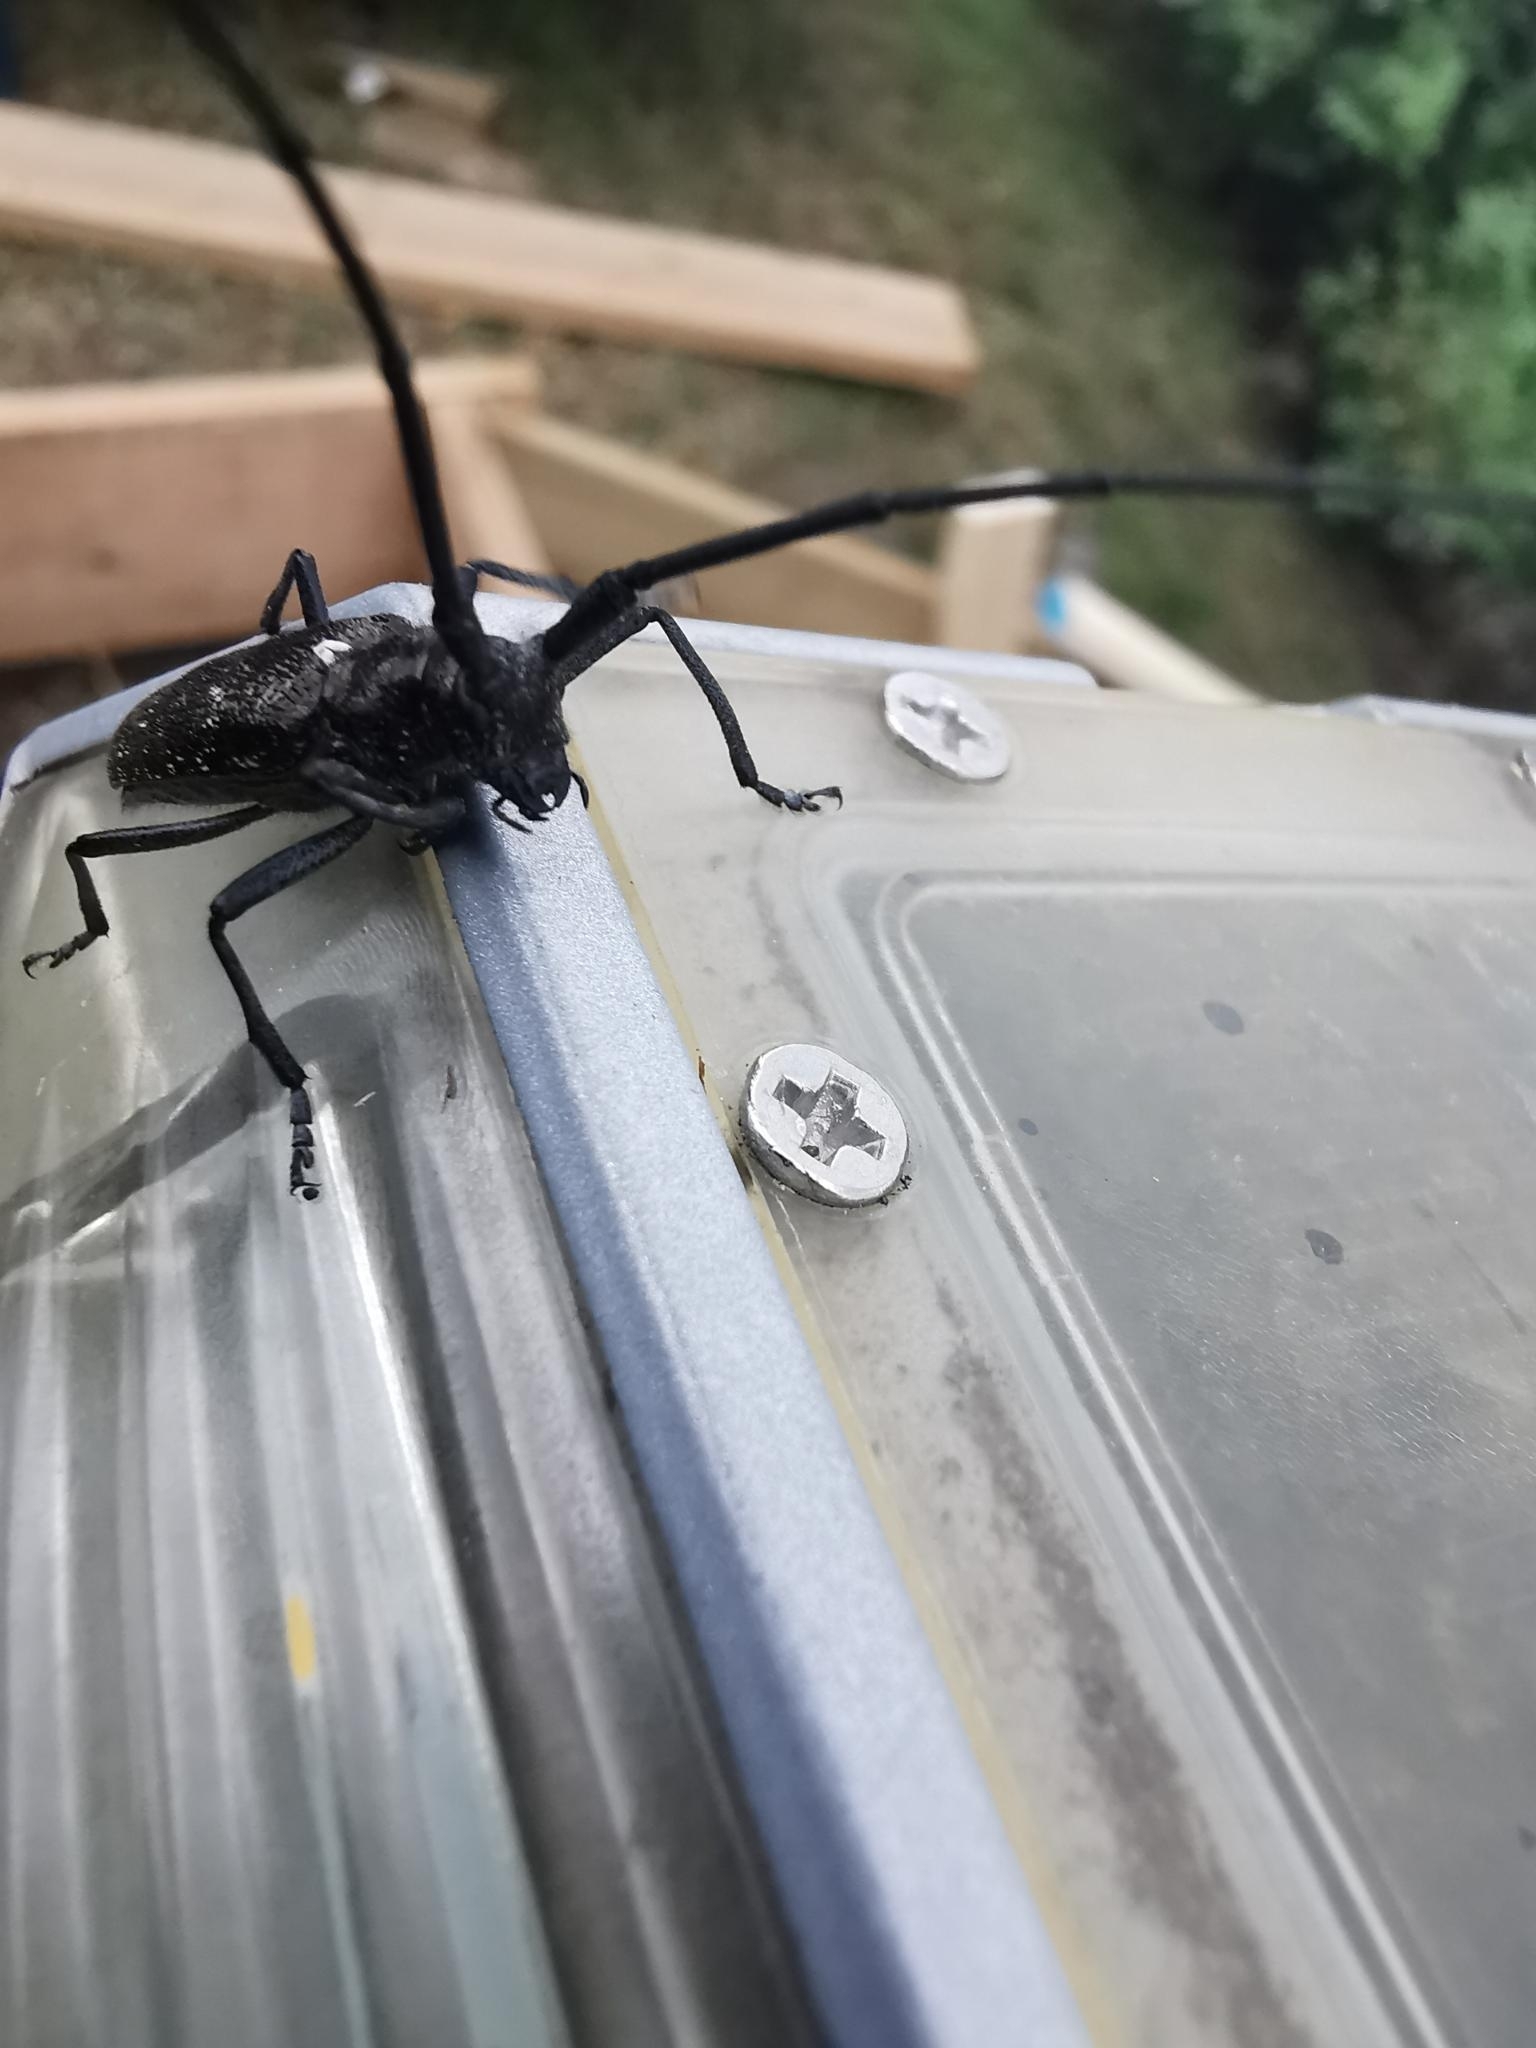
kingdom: Animalia
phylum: Arthropoda
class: Insecta
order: Coleoptera
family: Cerambycidae
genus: Monochamus
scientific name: Monochamus scutellatus
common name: White-spotted sawyer beetle
